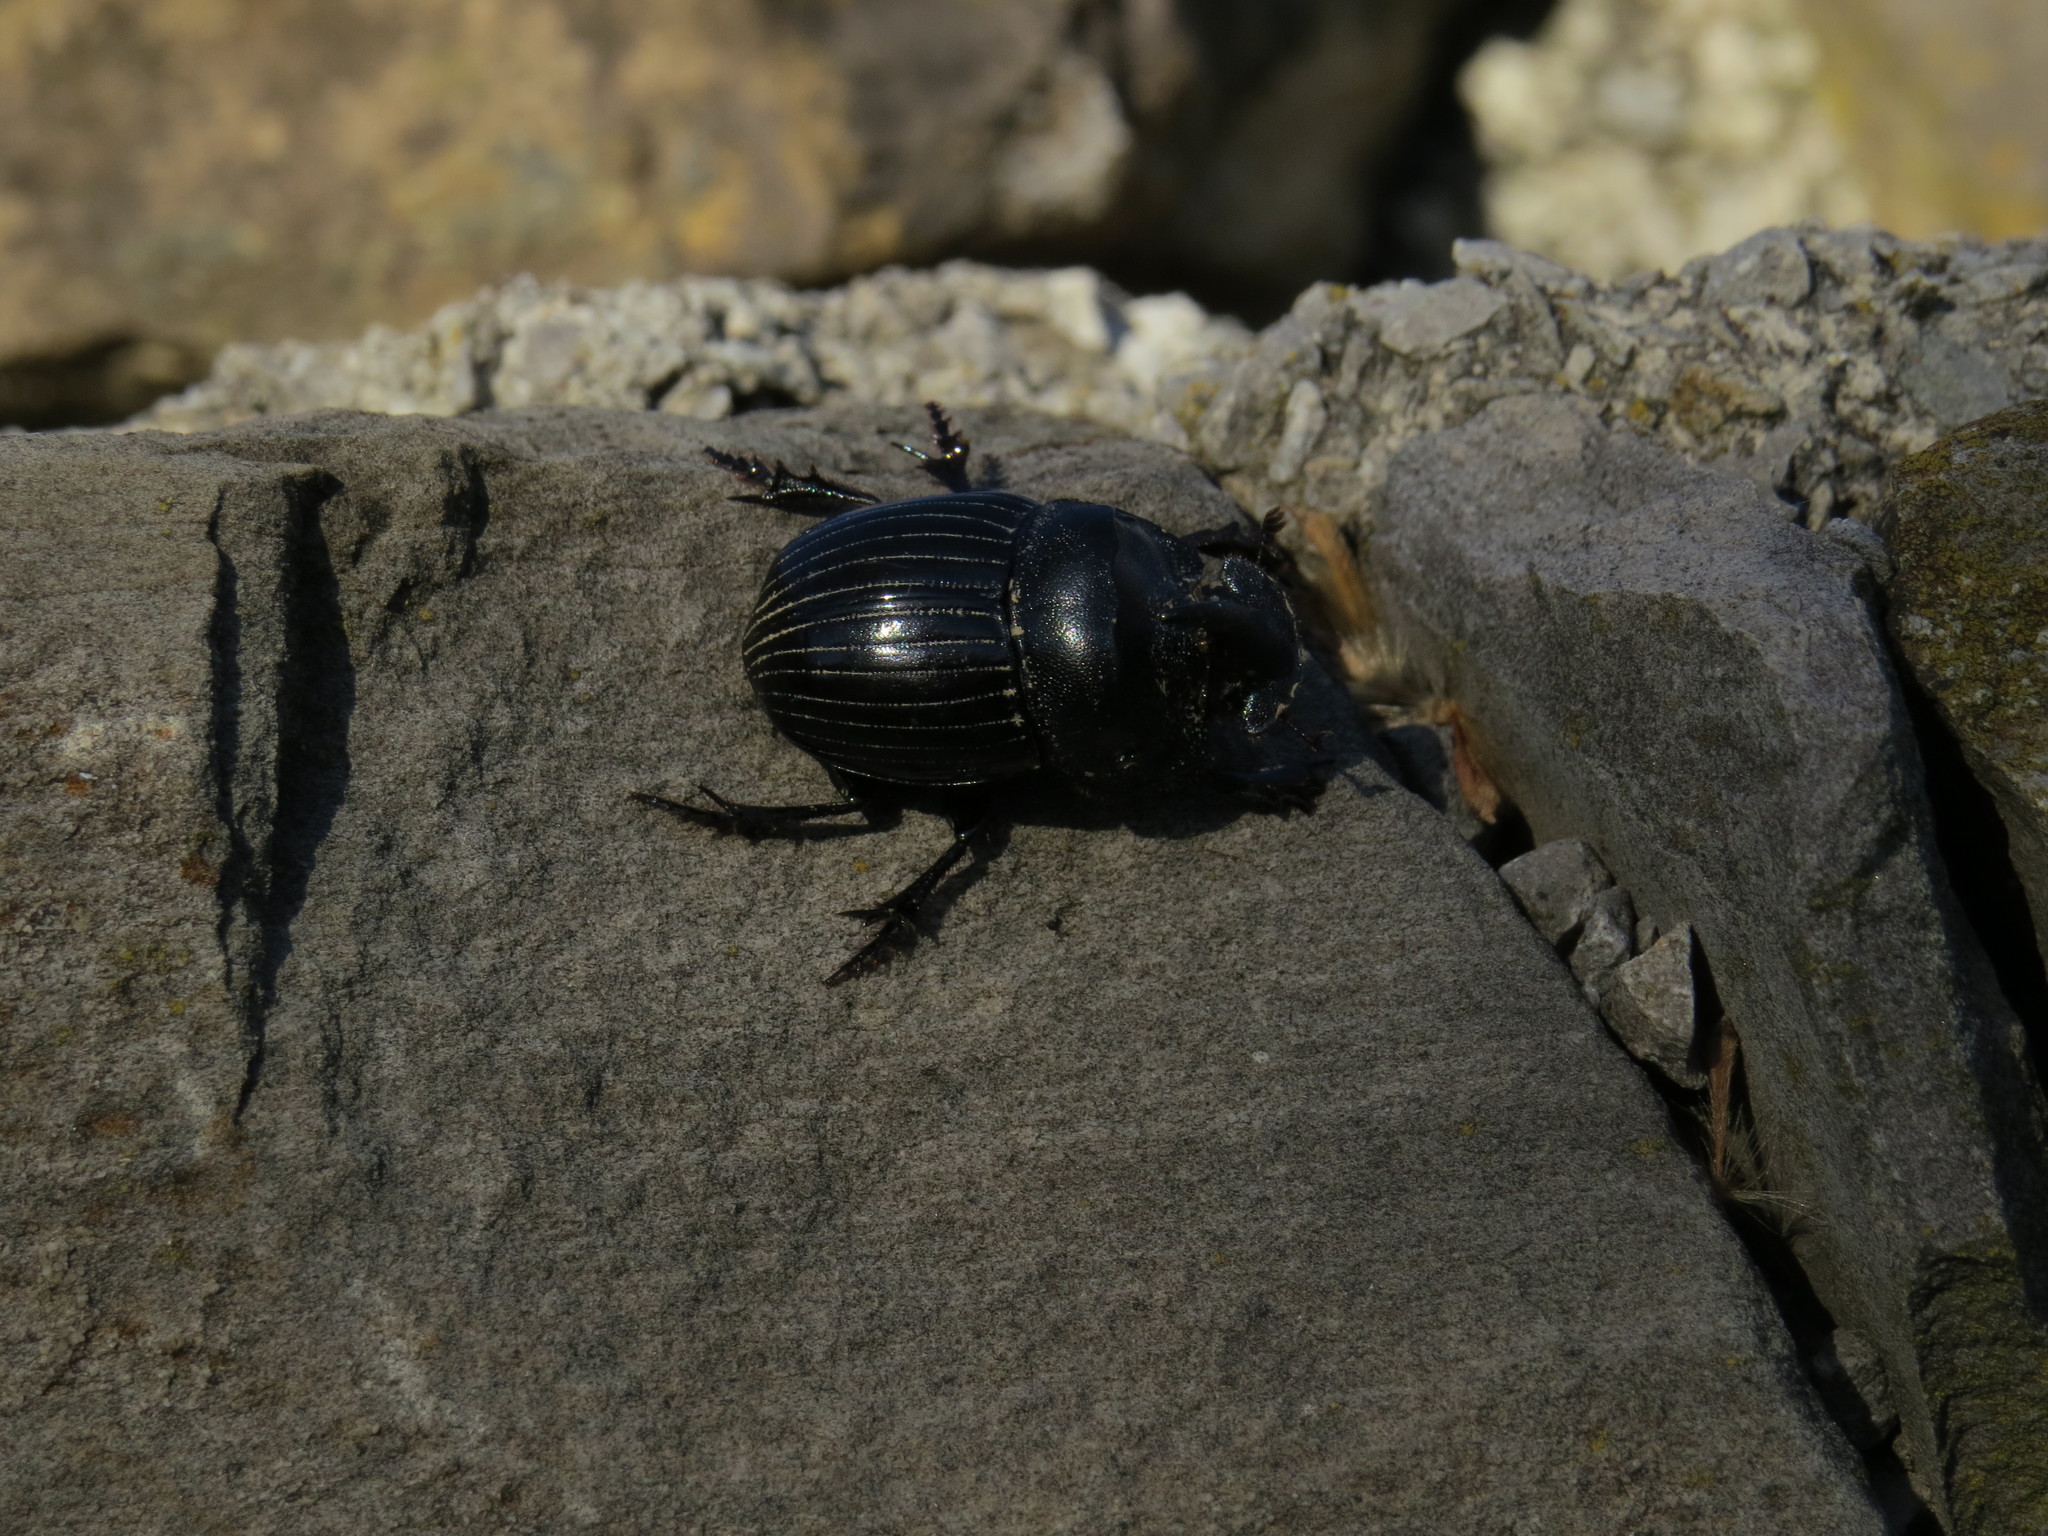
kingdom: Animalia
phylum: Arthropoda
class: Insecta
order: Coleoptera
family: Scarabaeidae
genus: Copris
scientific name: Copris hispanus
